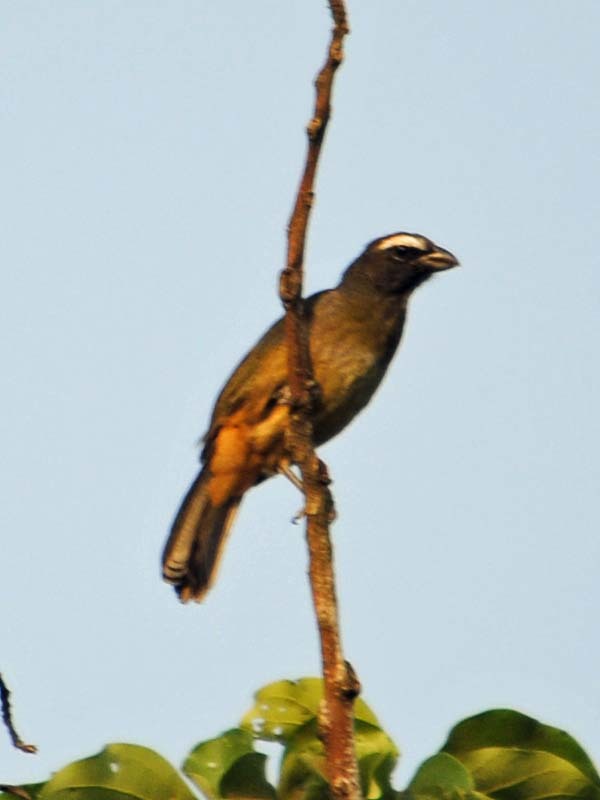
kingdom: Animalia
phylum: Chordata
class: Aves
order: Passeriformes
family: Thraupidae
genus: Saltator
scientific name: Saltator grandis
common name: Cinnamon-bellied saltator
